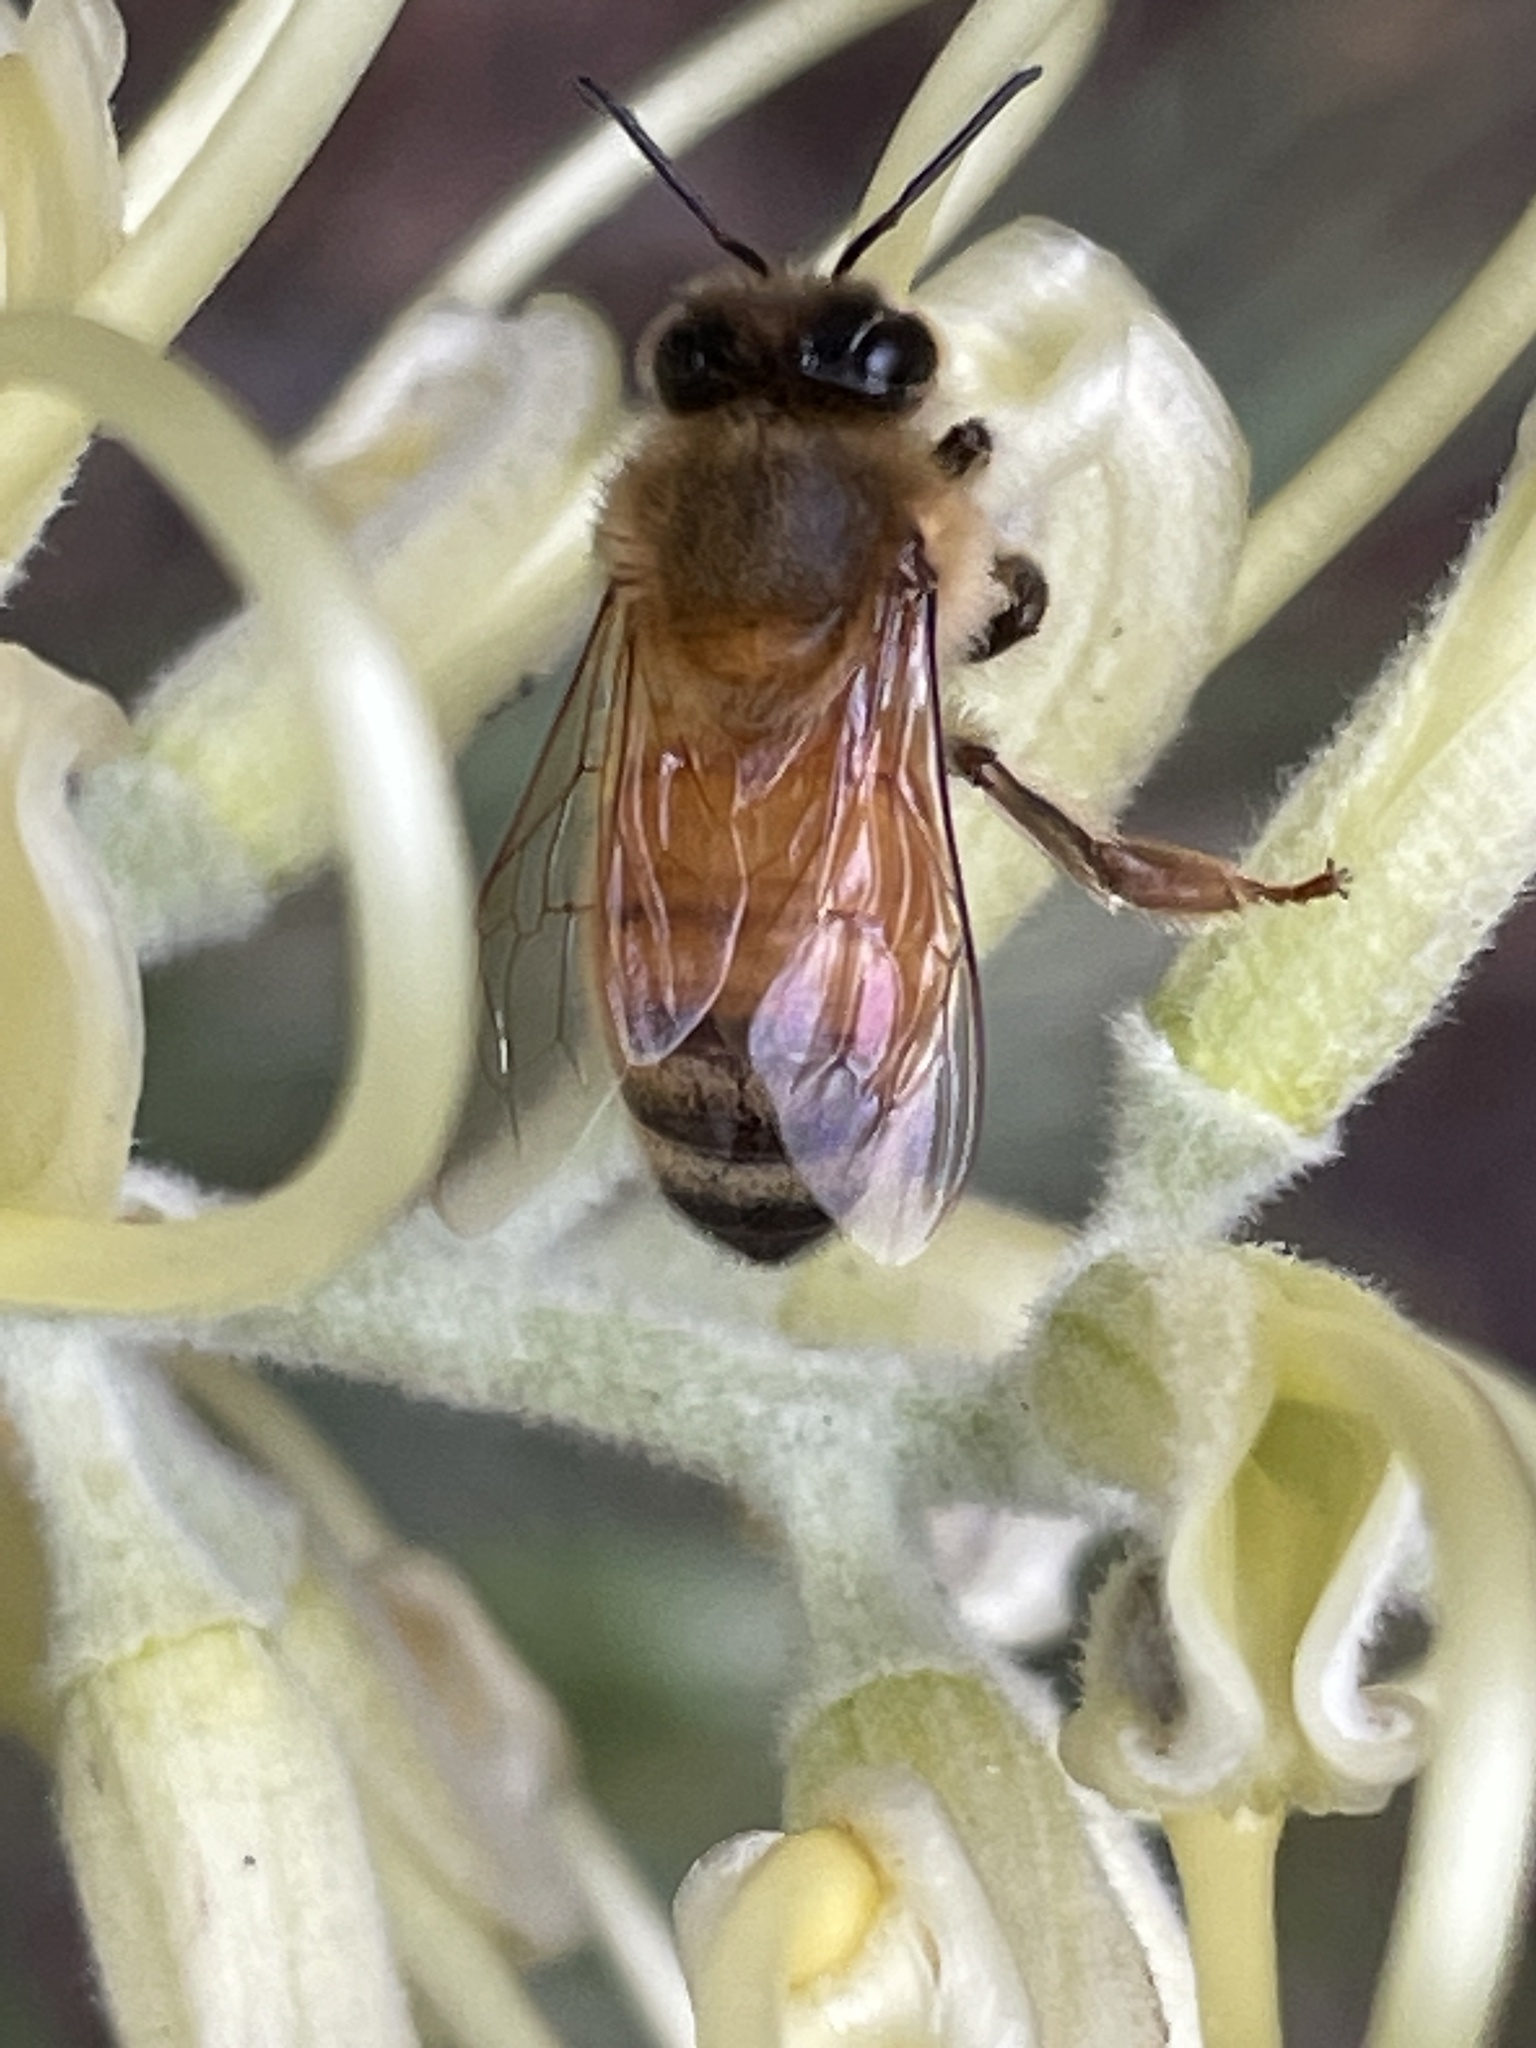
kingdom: Animalia
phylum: Arthropoda
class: Insecta
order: Hymenoptera
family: Apidae
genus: Apis
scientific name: Apis mellifera
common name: Honey bee
